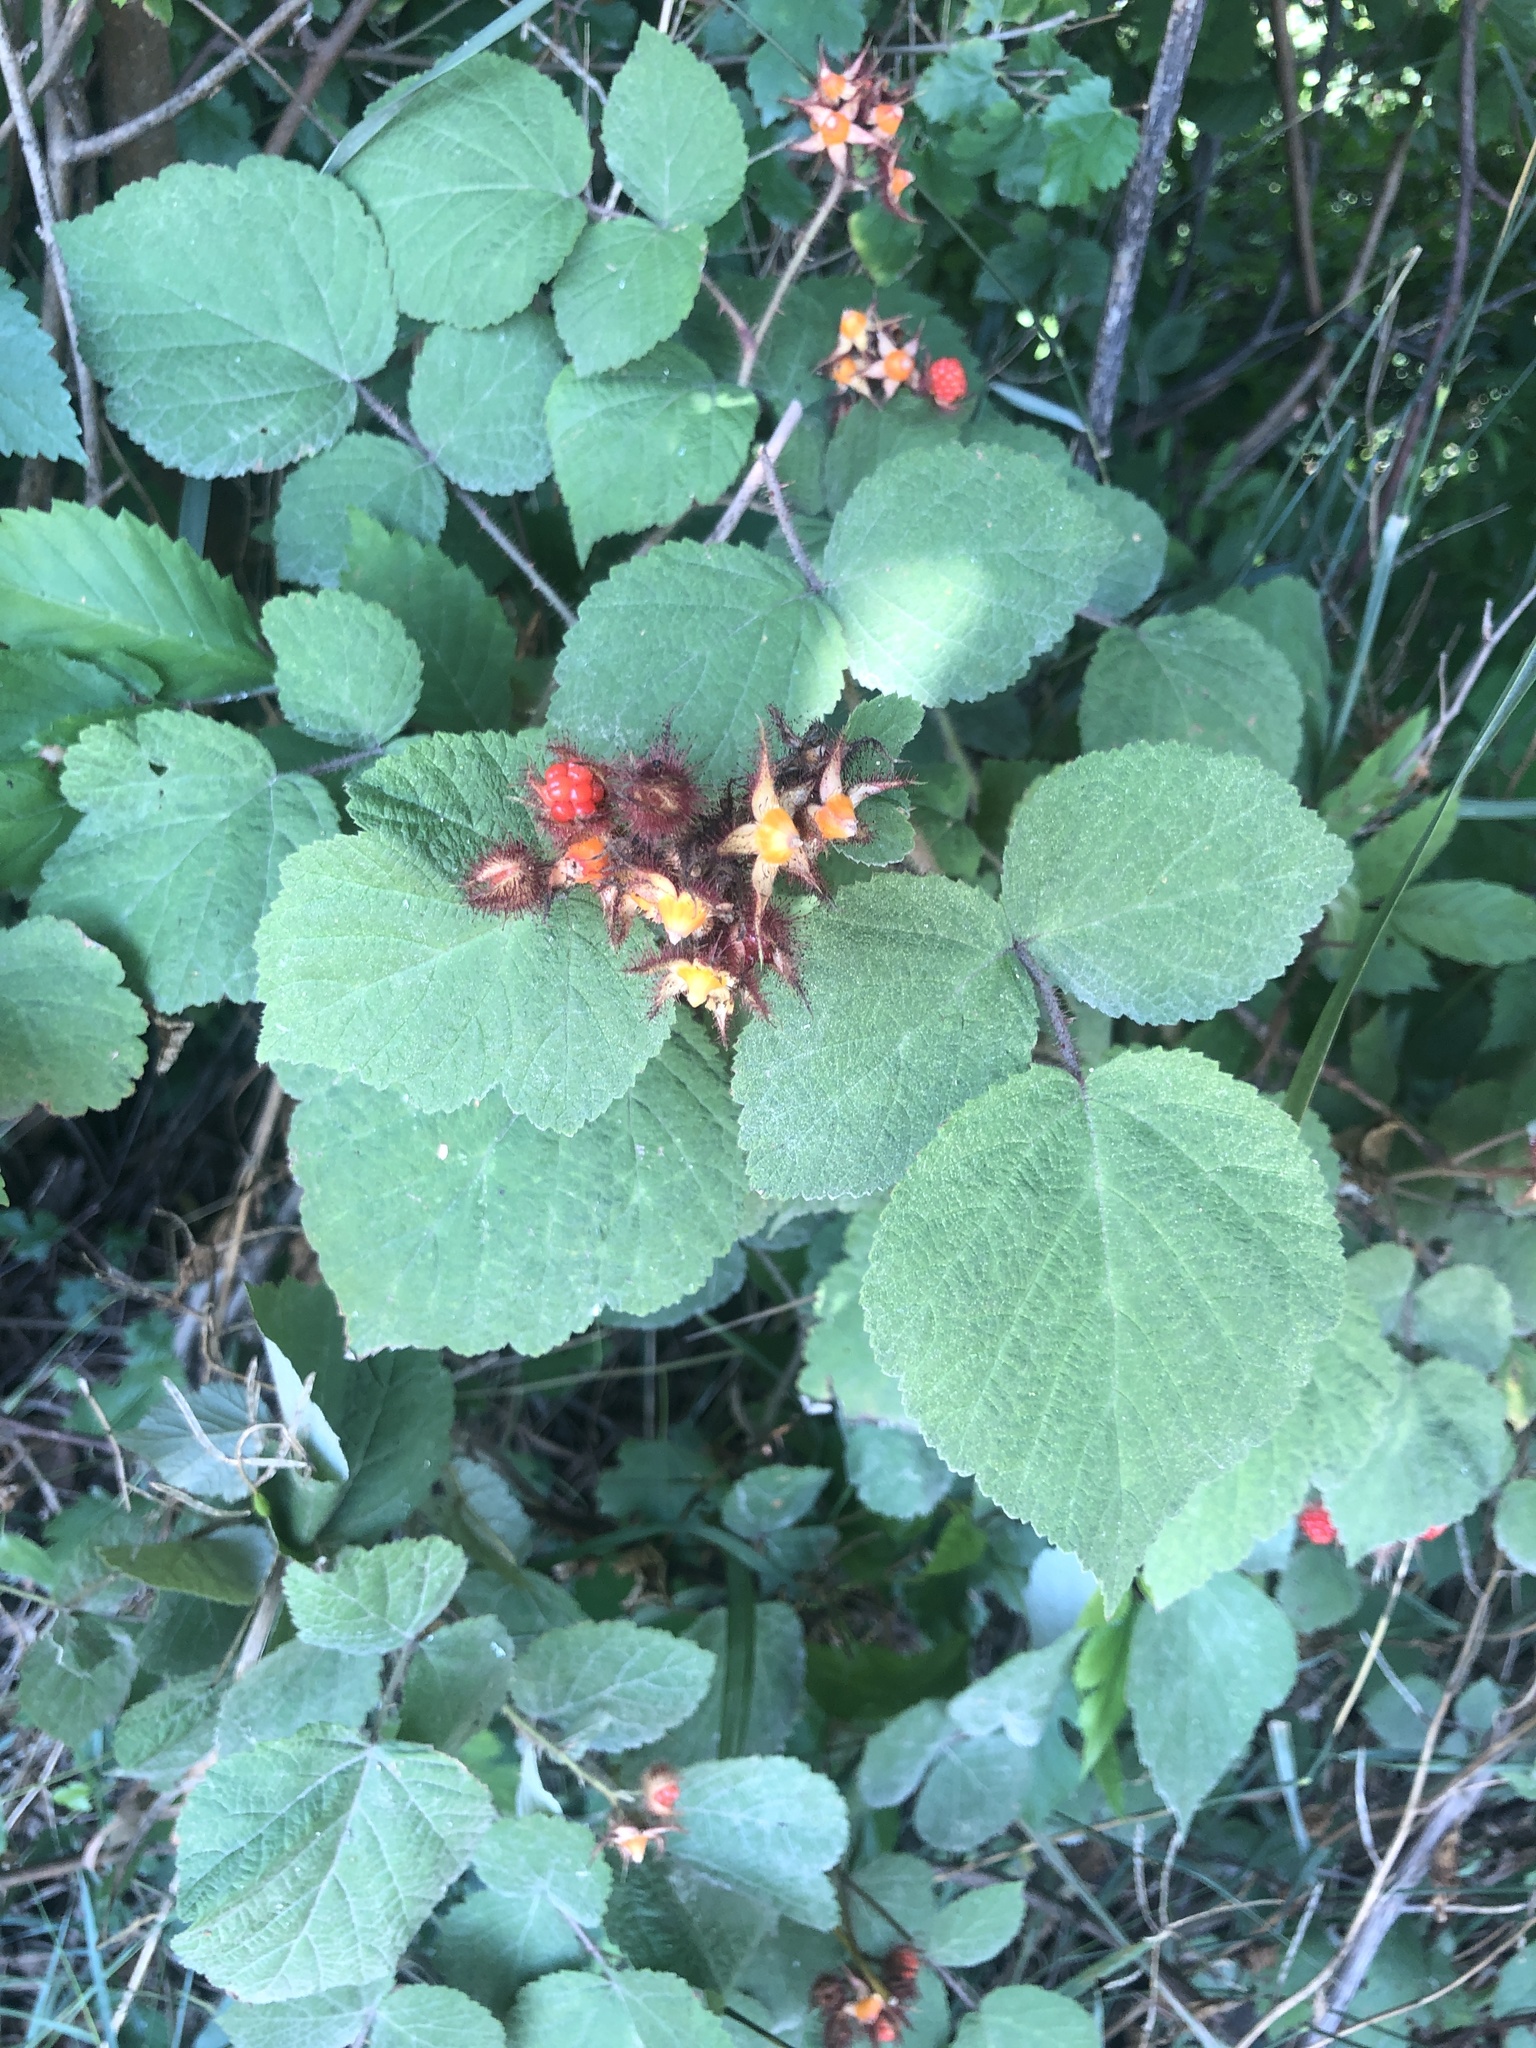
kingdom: Plantae
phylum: Tracheophyta
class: Magnoliopsida
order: Rosales
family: Rosaceae
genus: Rubus
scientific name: Rubus phoenicolasius
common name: Japanese wineberry
